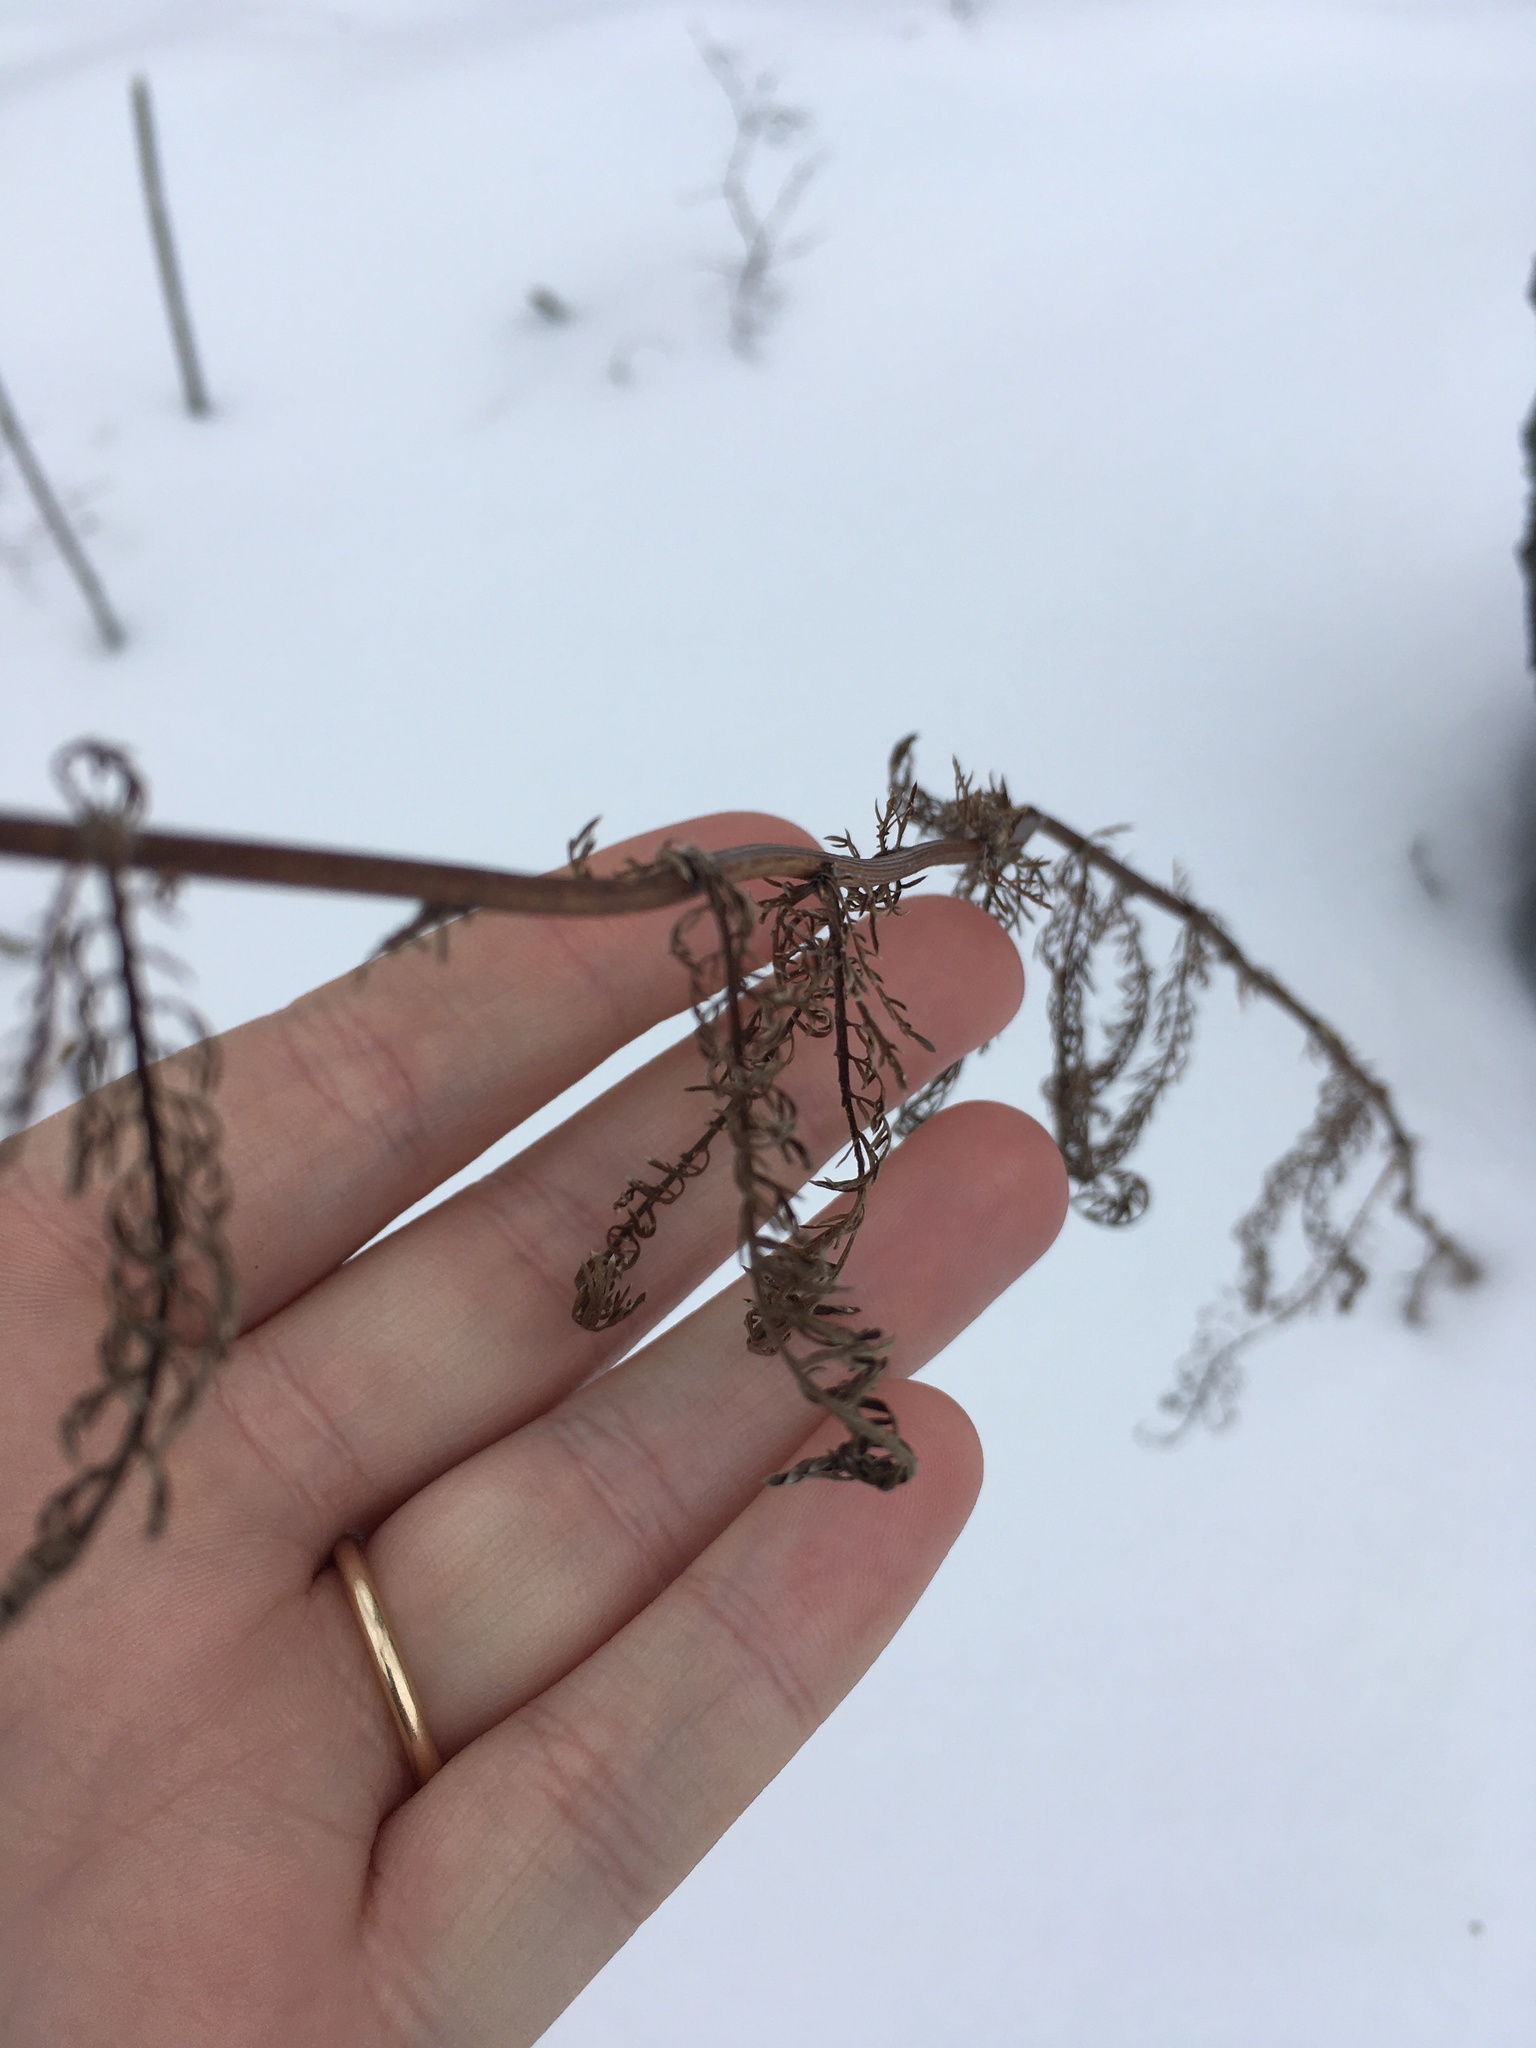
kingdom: Plantae
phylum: Tracheophyta
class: Magnoliopsida
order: Asterales
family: Asteraceae
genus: Achillea
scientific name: Achillea millefolium
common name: Yarrow
